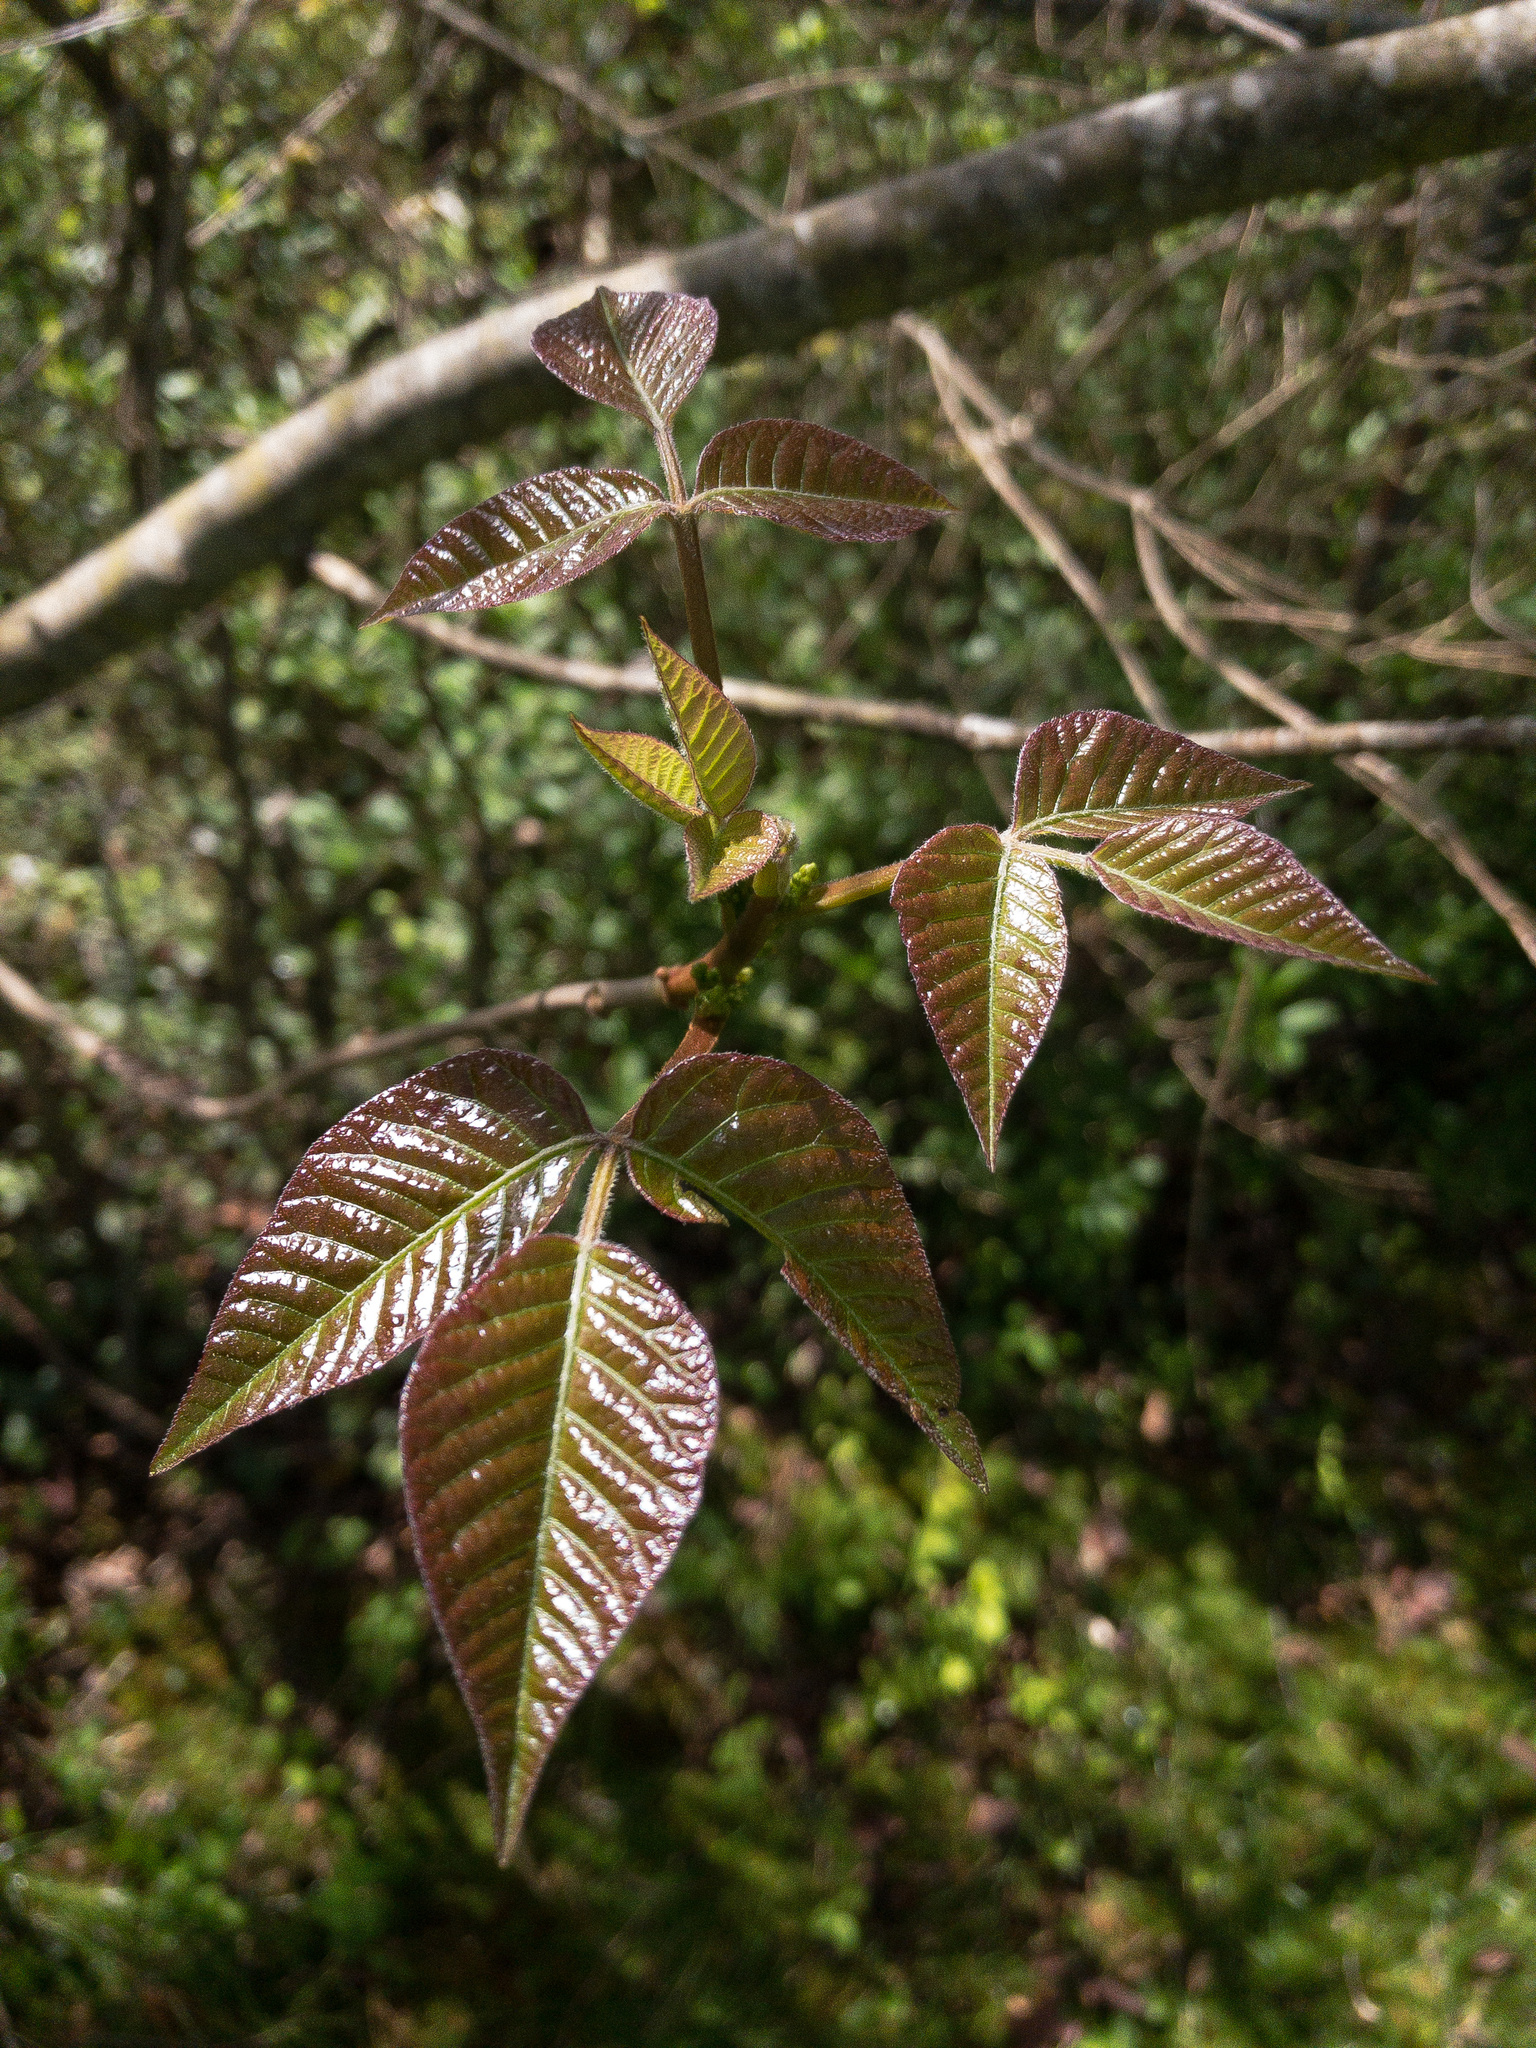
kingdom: Plantae
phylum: Tracheophyta
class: Magnoliopsida
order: Sapindales
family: Anacardiaceae
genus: Toxicodendron
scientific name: Toxicodendron radicans
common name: Poison ivy
